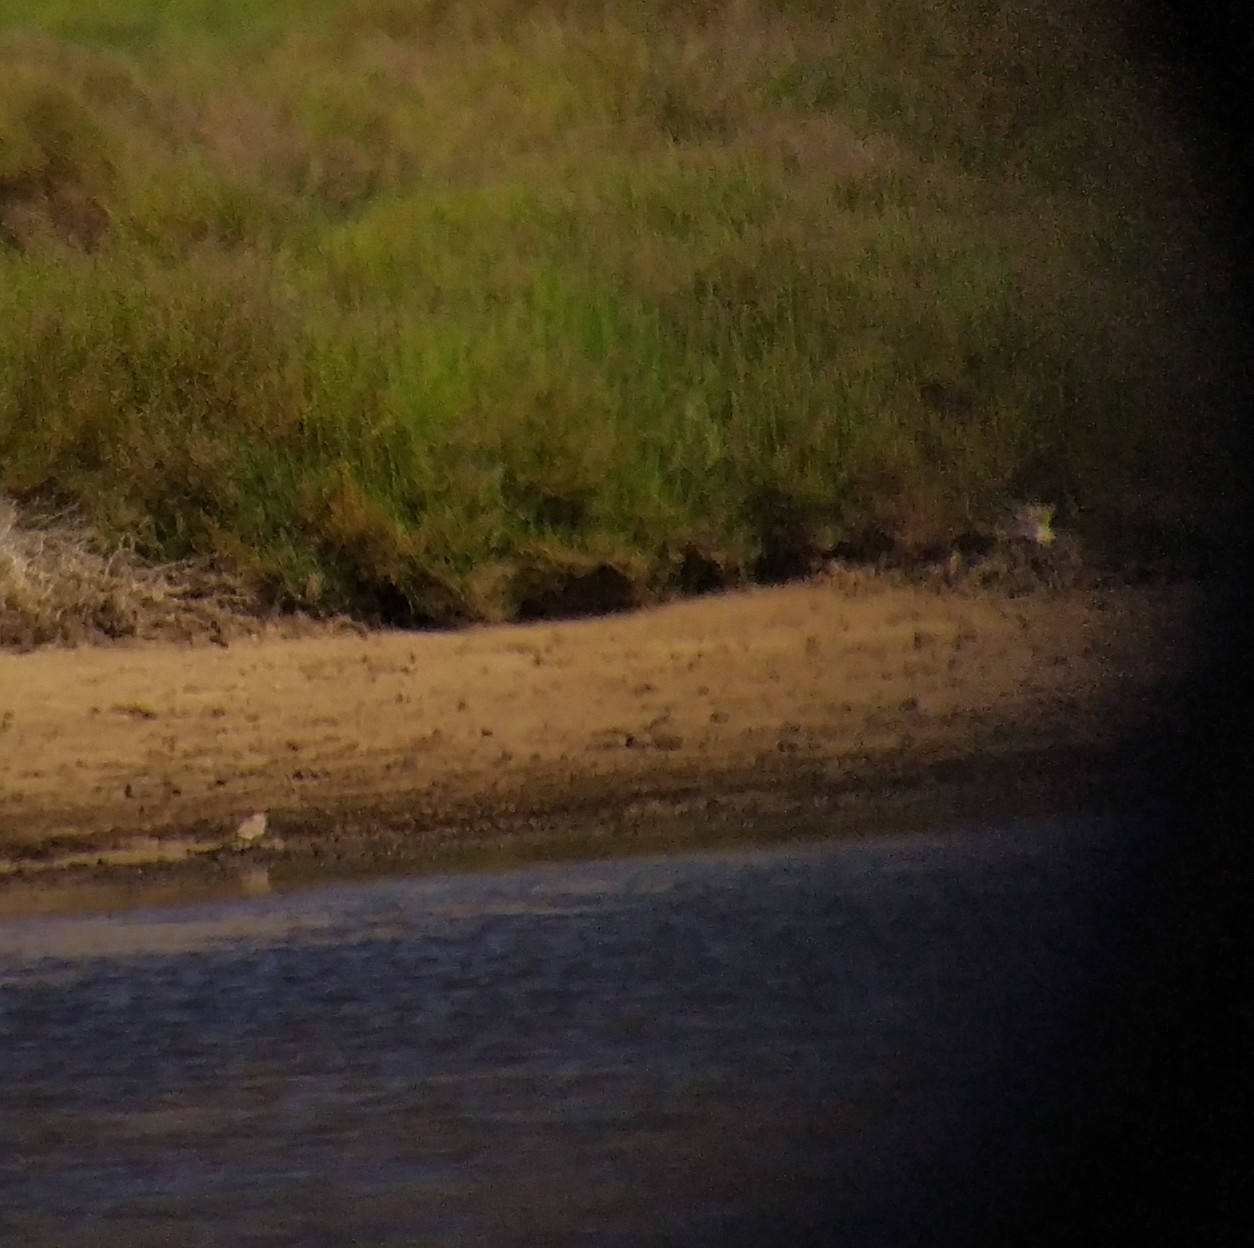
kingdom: Animalia
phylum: Chordata
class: Aves
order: Charadriiformes
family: Charadriidae
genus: Charadrius
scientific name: Charadrius alexandrinus
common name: Kentish plover
